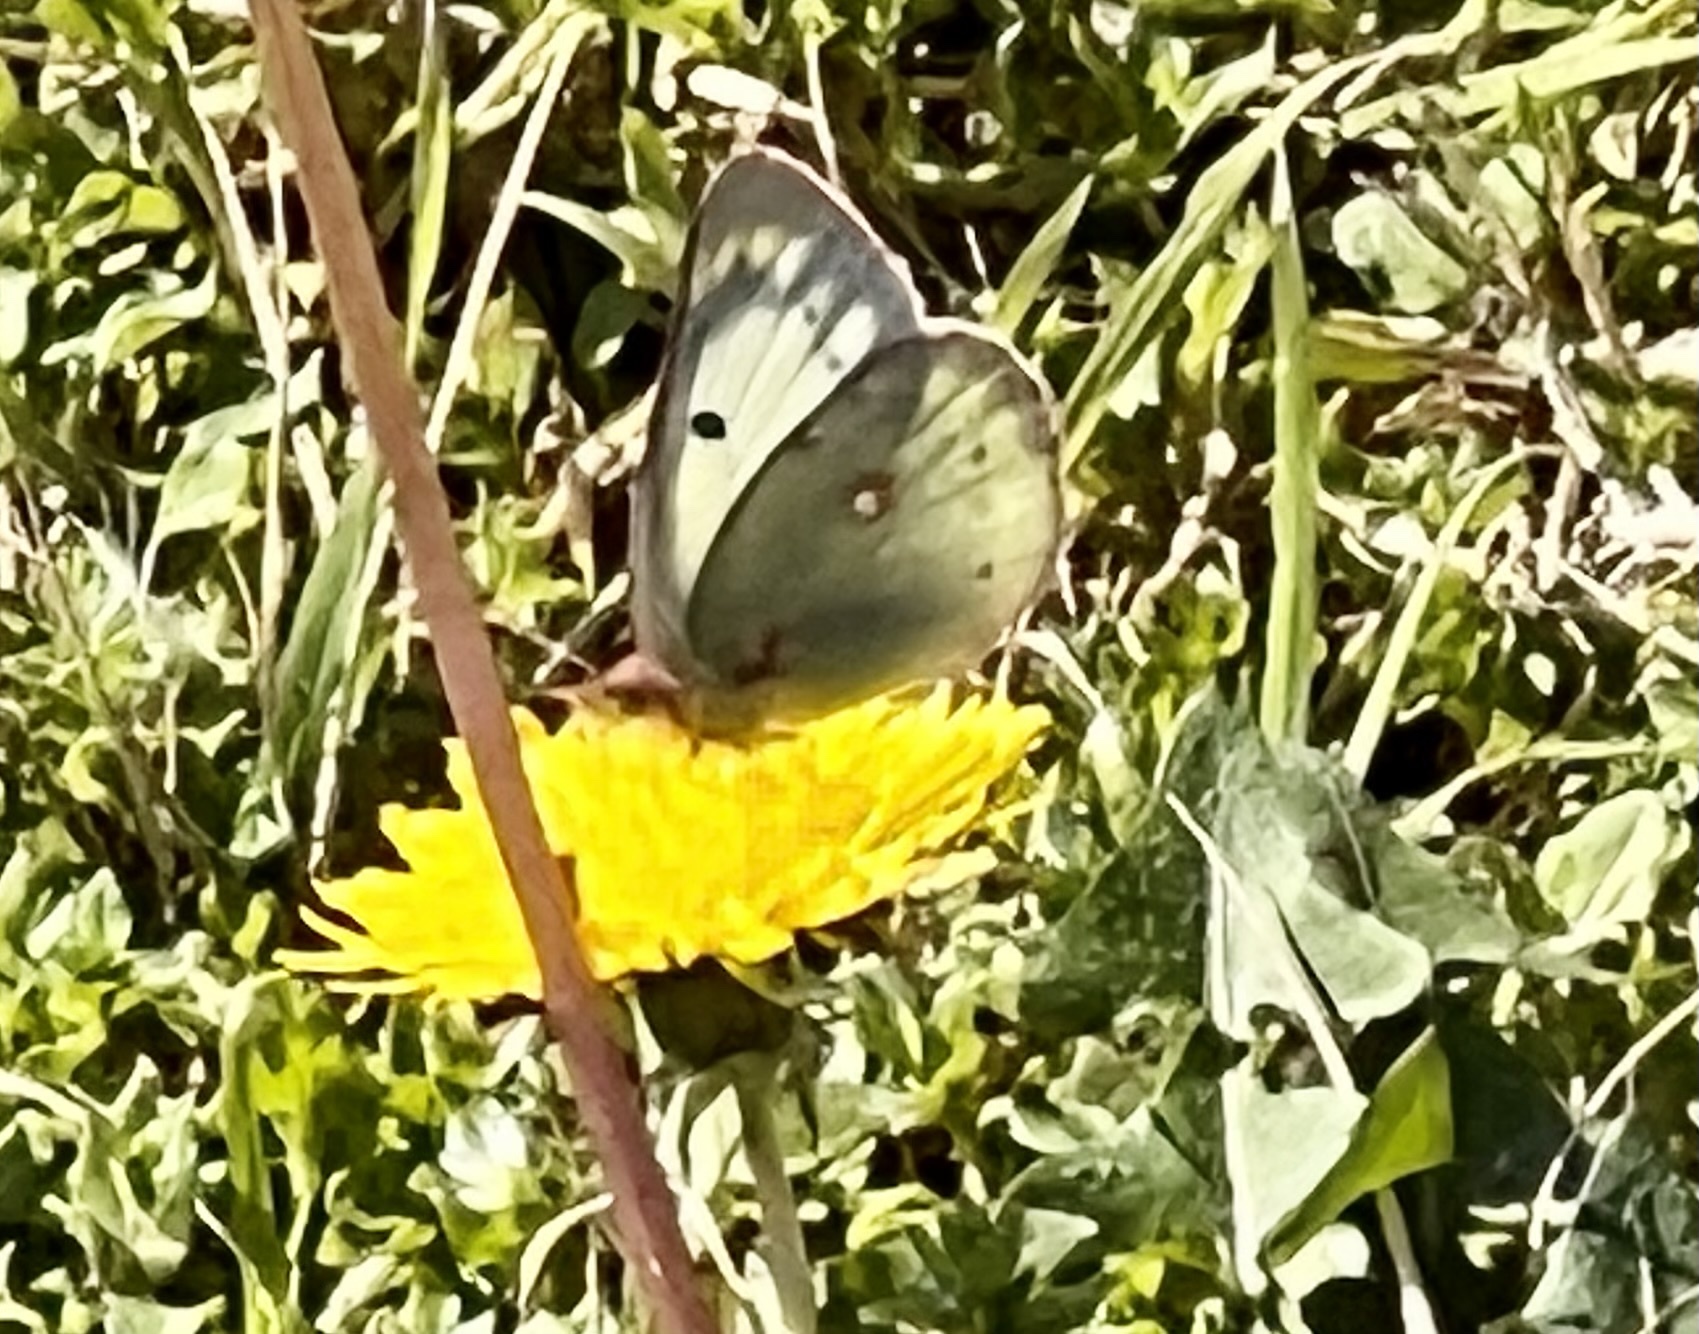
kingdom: Animalia
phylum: Arthropoda
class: Insecta
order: Lepidoptera
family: Pieridae
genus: Colias
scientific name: Colias eurytheme
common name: Alfalfa butterfly
